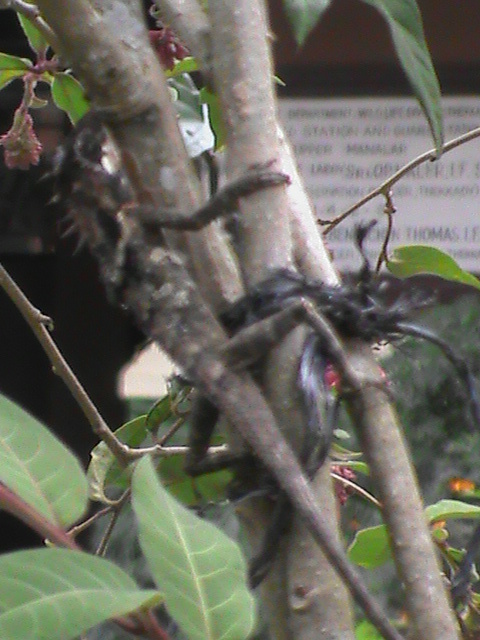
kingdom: Animalia
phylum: Chordata
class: Squamata
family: Agamidae
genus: Monilesaurus
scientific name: Monilesaurus acanthocephalus
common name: Spiny-headed lizard
